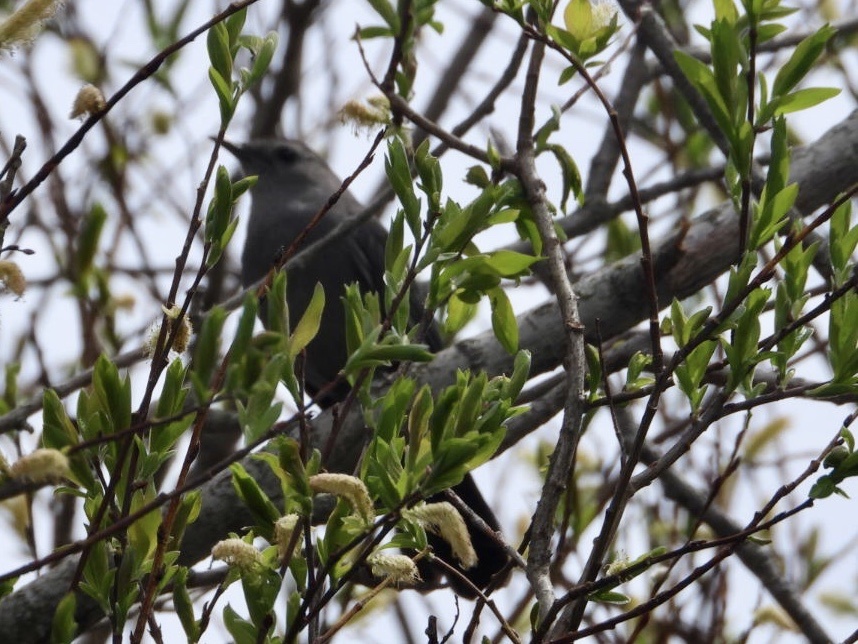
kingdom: Animalia
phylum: Chordata
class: Aves
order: Passeriformes
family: Mimidae
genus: Dumetella
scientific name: Dumetella carolinensis
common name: Gray catbird
